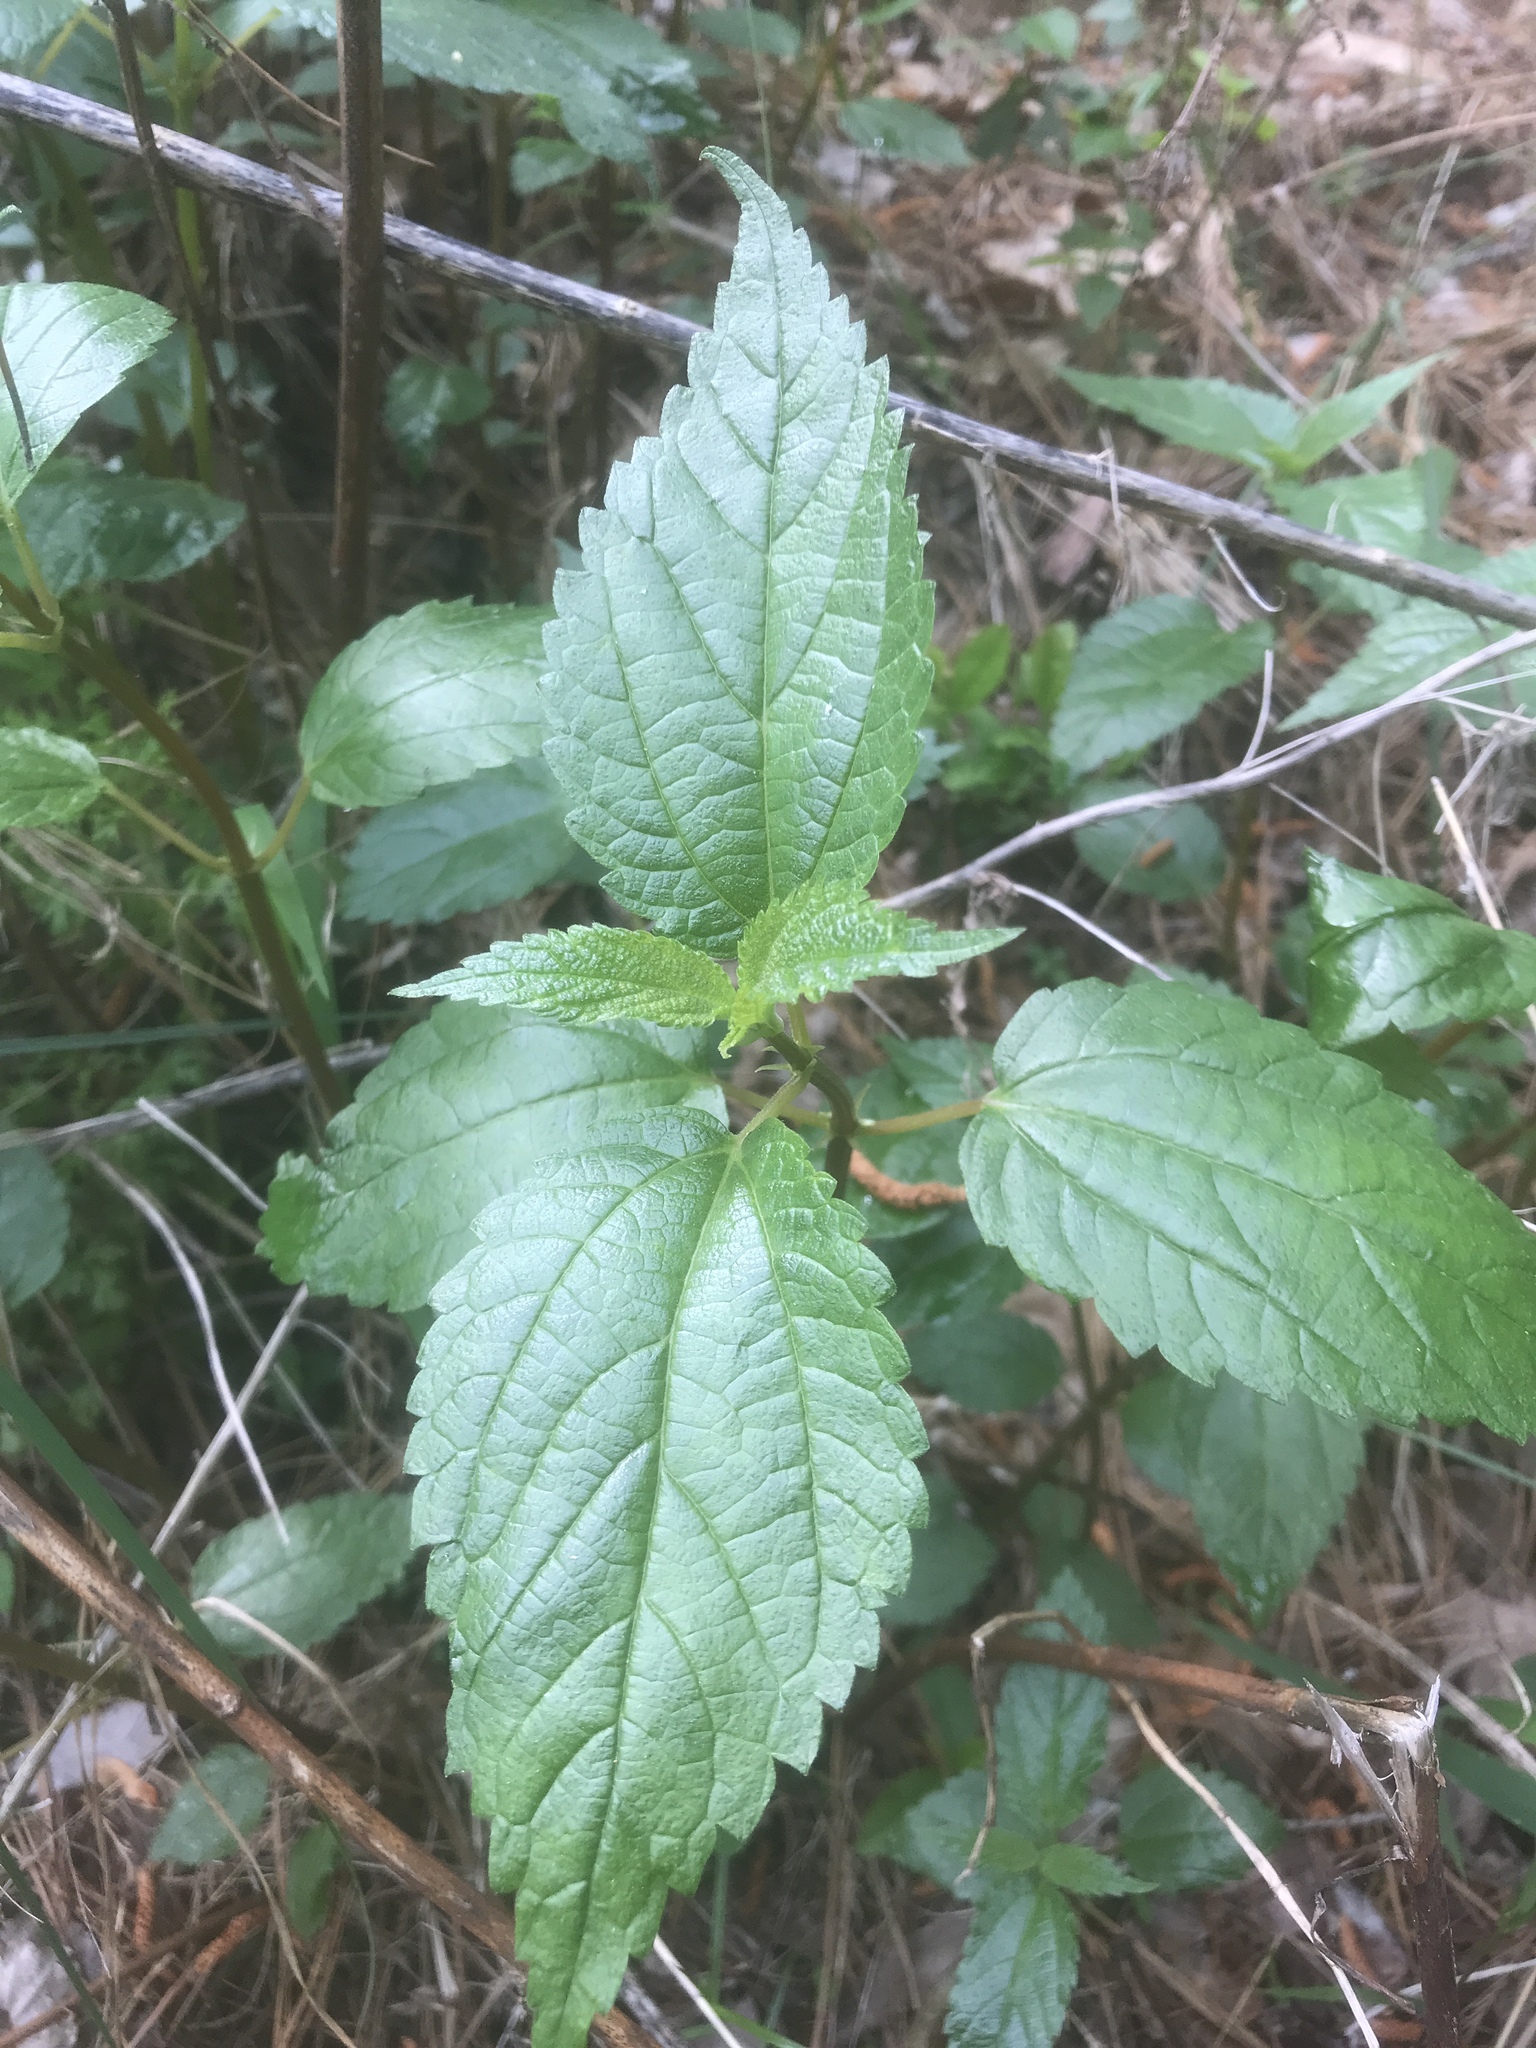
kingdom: Plantae
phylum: Tracheophyta
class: Magnoliopsida
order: Rosales
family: Urticaceae
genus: Boehmeria
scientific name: Boehmeria cylindrica
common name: Bog-hemp
